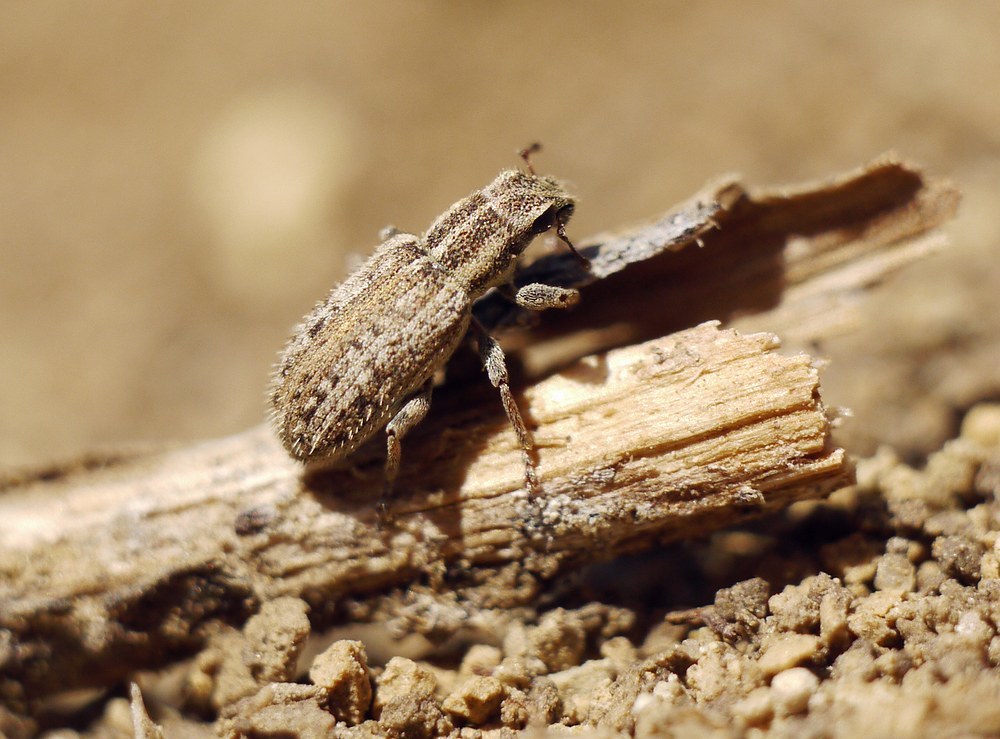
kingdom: Animalia
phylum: Arthropoda
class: Insecta
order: Coleoptera
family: Curculionidae
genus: Sitona
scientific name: Sitona macularius
